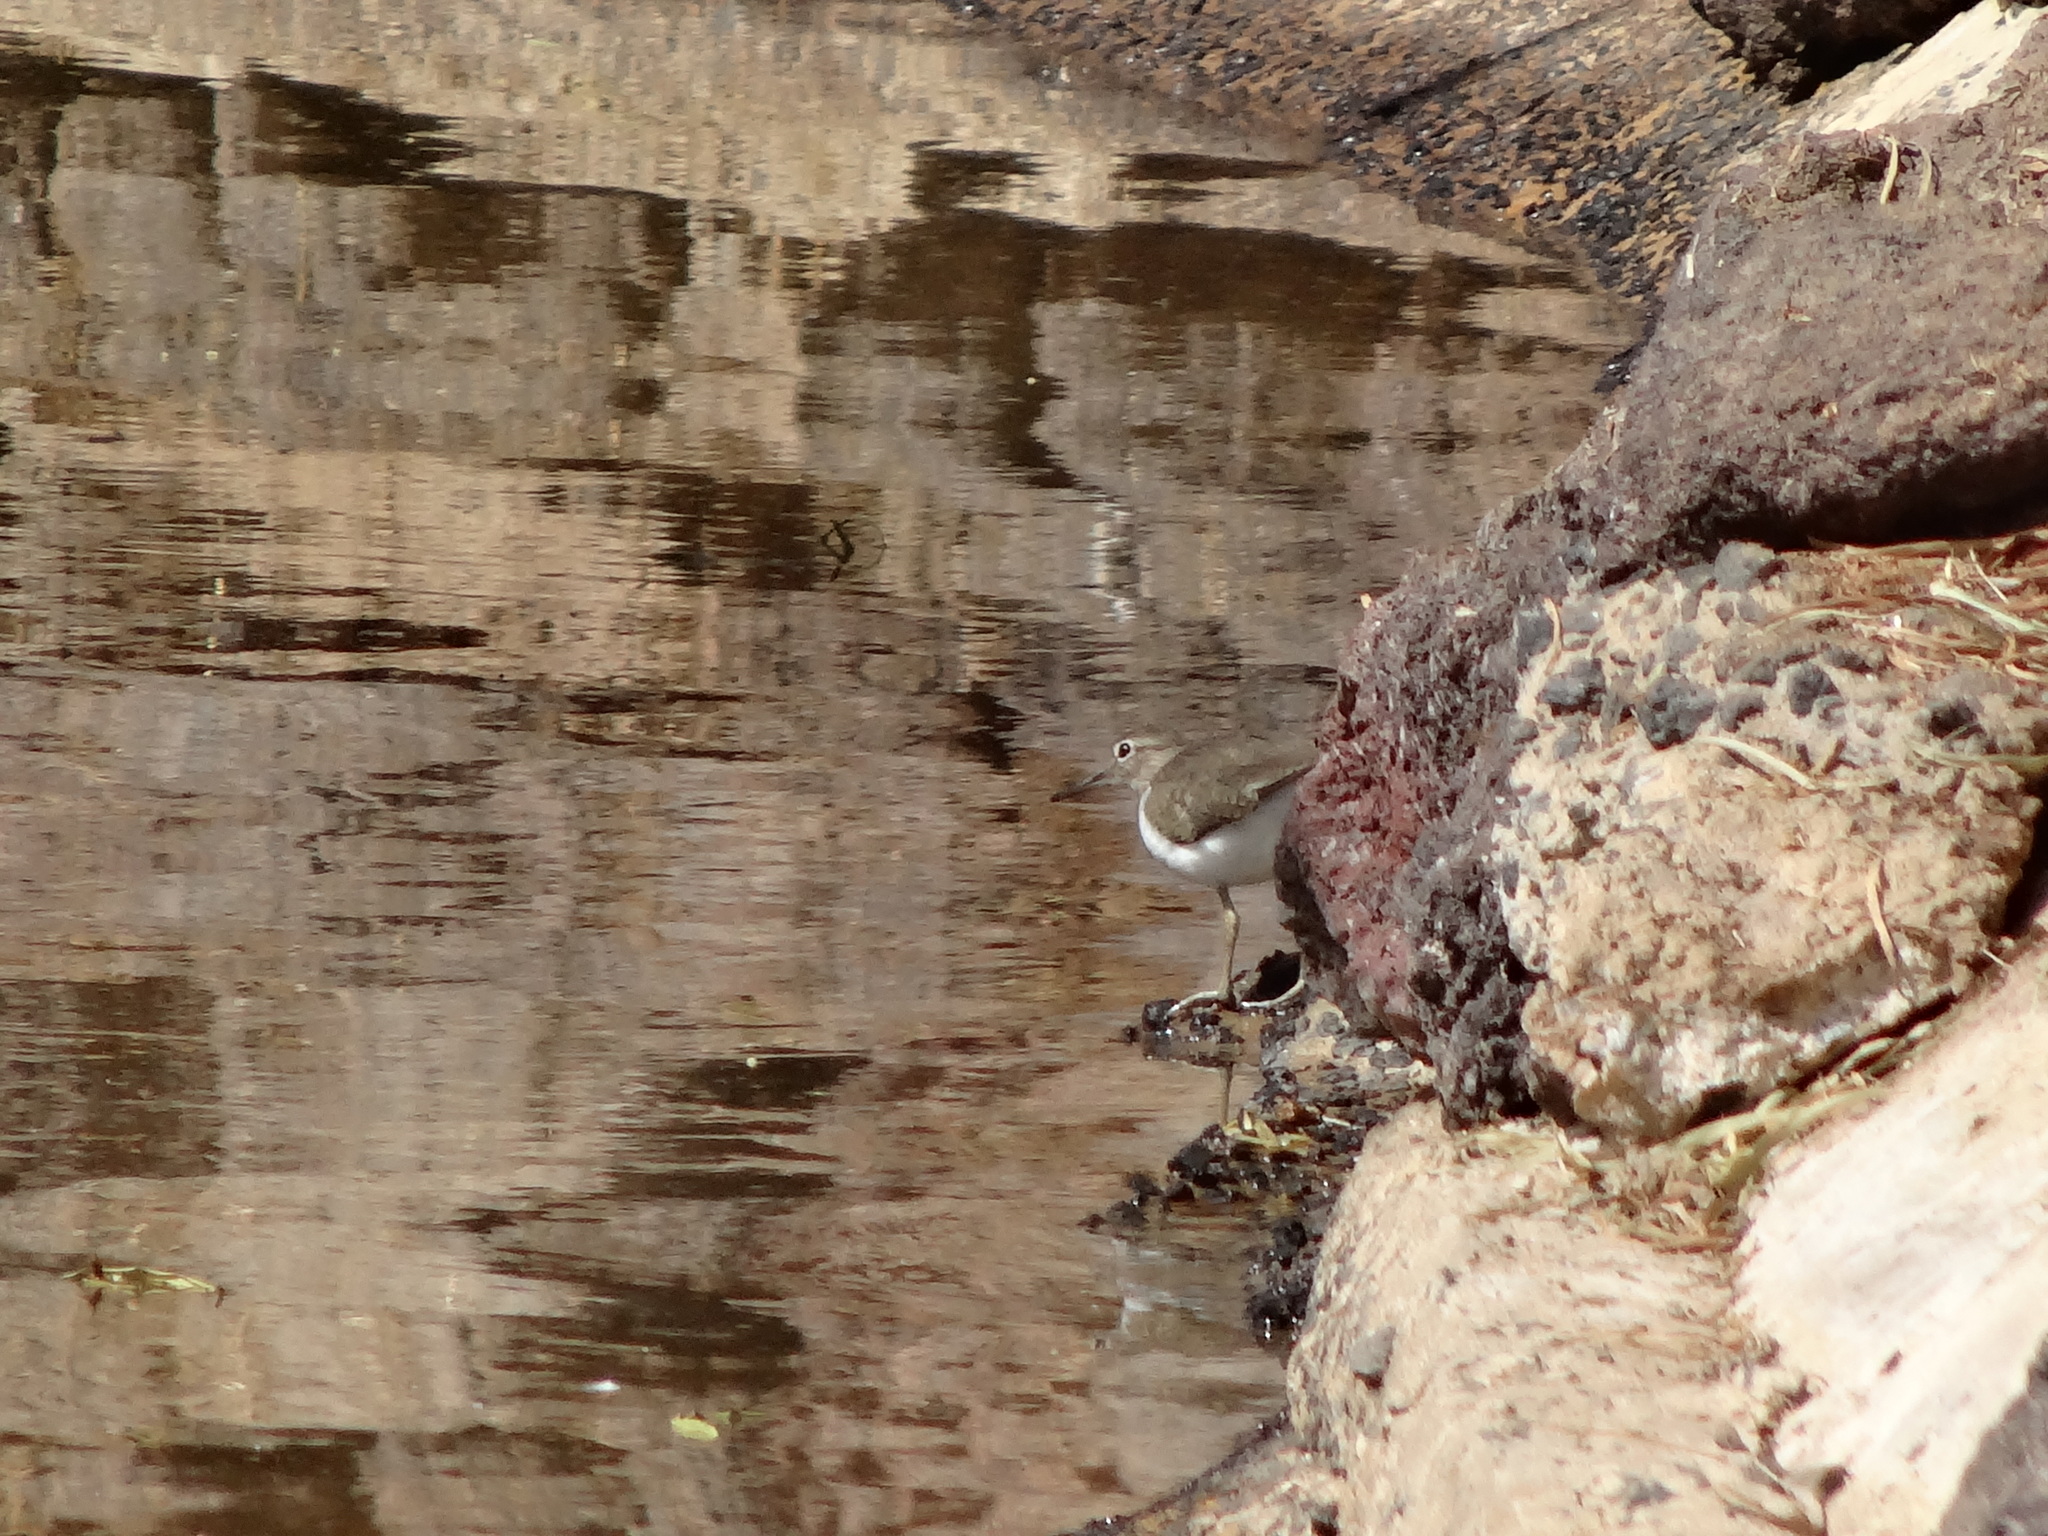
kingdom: Animalia
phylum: Chordata
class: Aves
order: Charadriiformes
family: Scolopacidae
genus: Actitis
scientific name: Actitis hypoleucos
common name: Common sandpiper
